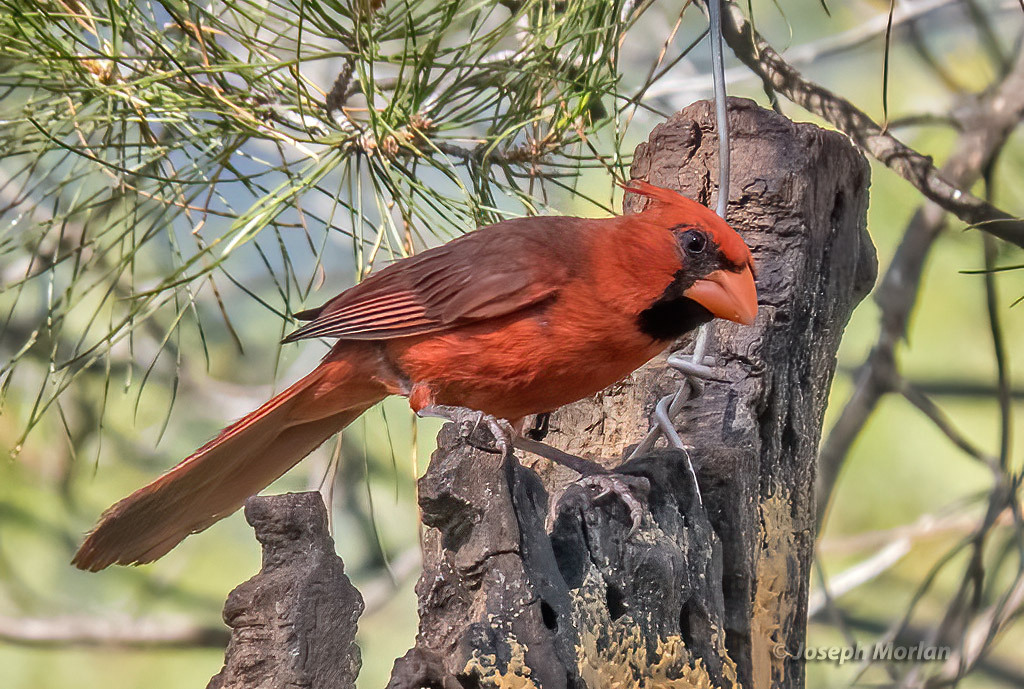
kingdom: Animalia
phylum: Chordata
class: Aves
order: Passeriformes
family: Cardinalidae
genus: Cardinalis
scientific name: Cardinalis cardinalis
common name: Northern cardinal
